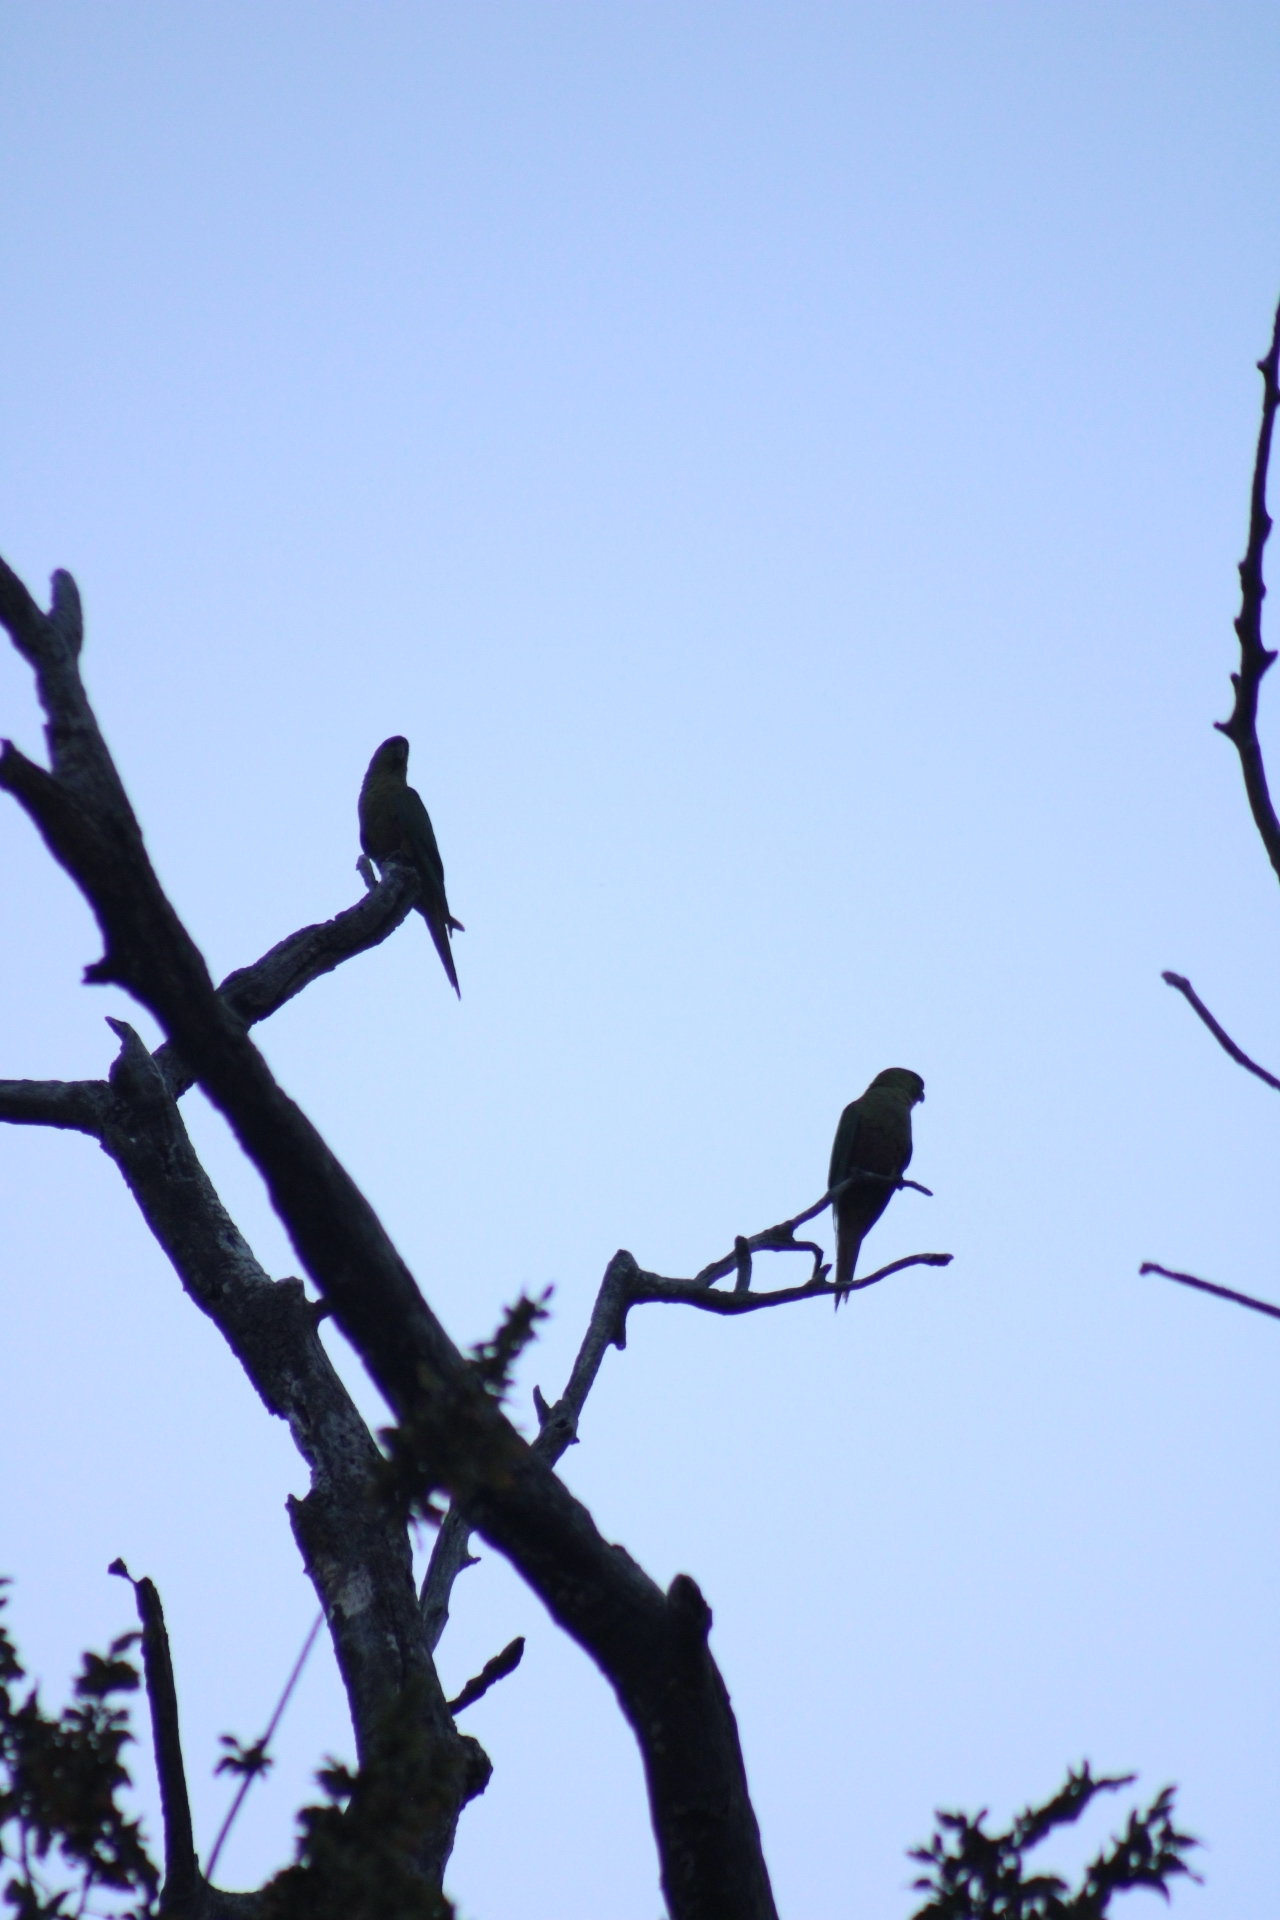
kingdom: Animalia
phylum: Chordata
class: Aves
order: Psittaciformes
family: Psittacidae
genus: Enicognathus
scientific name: Enicognathus ferrugineus
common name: Austral parakeet
